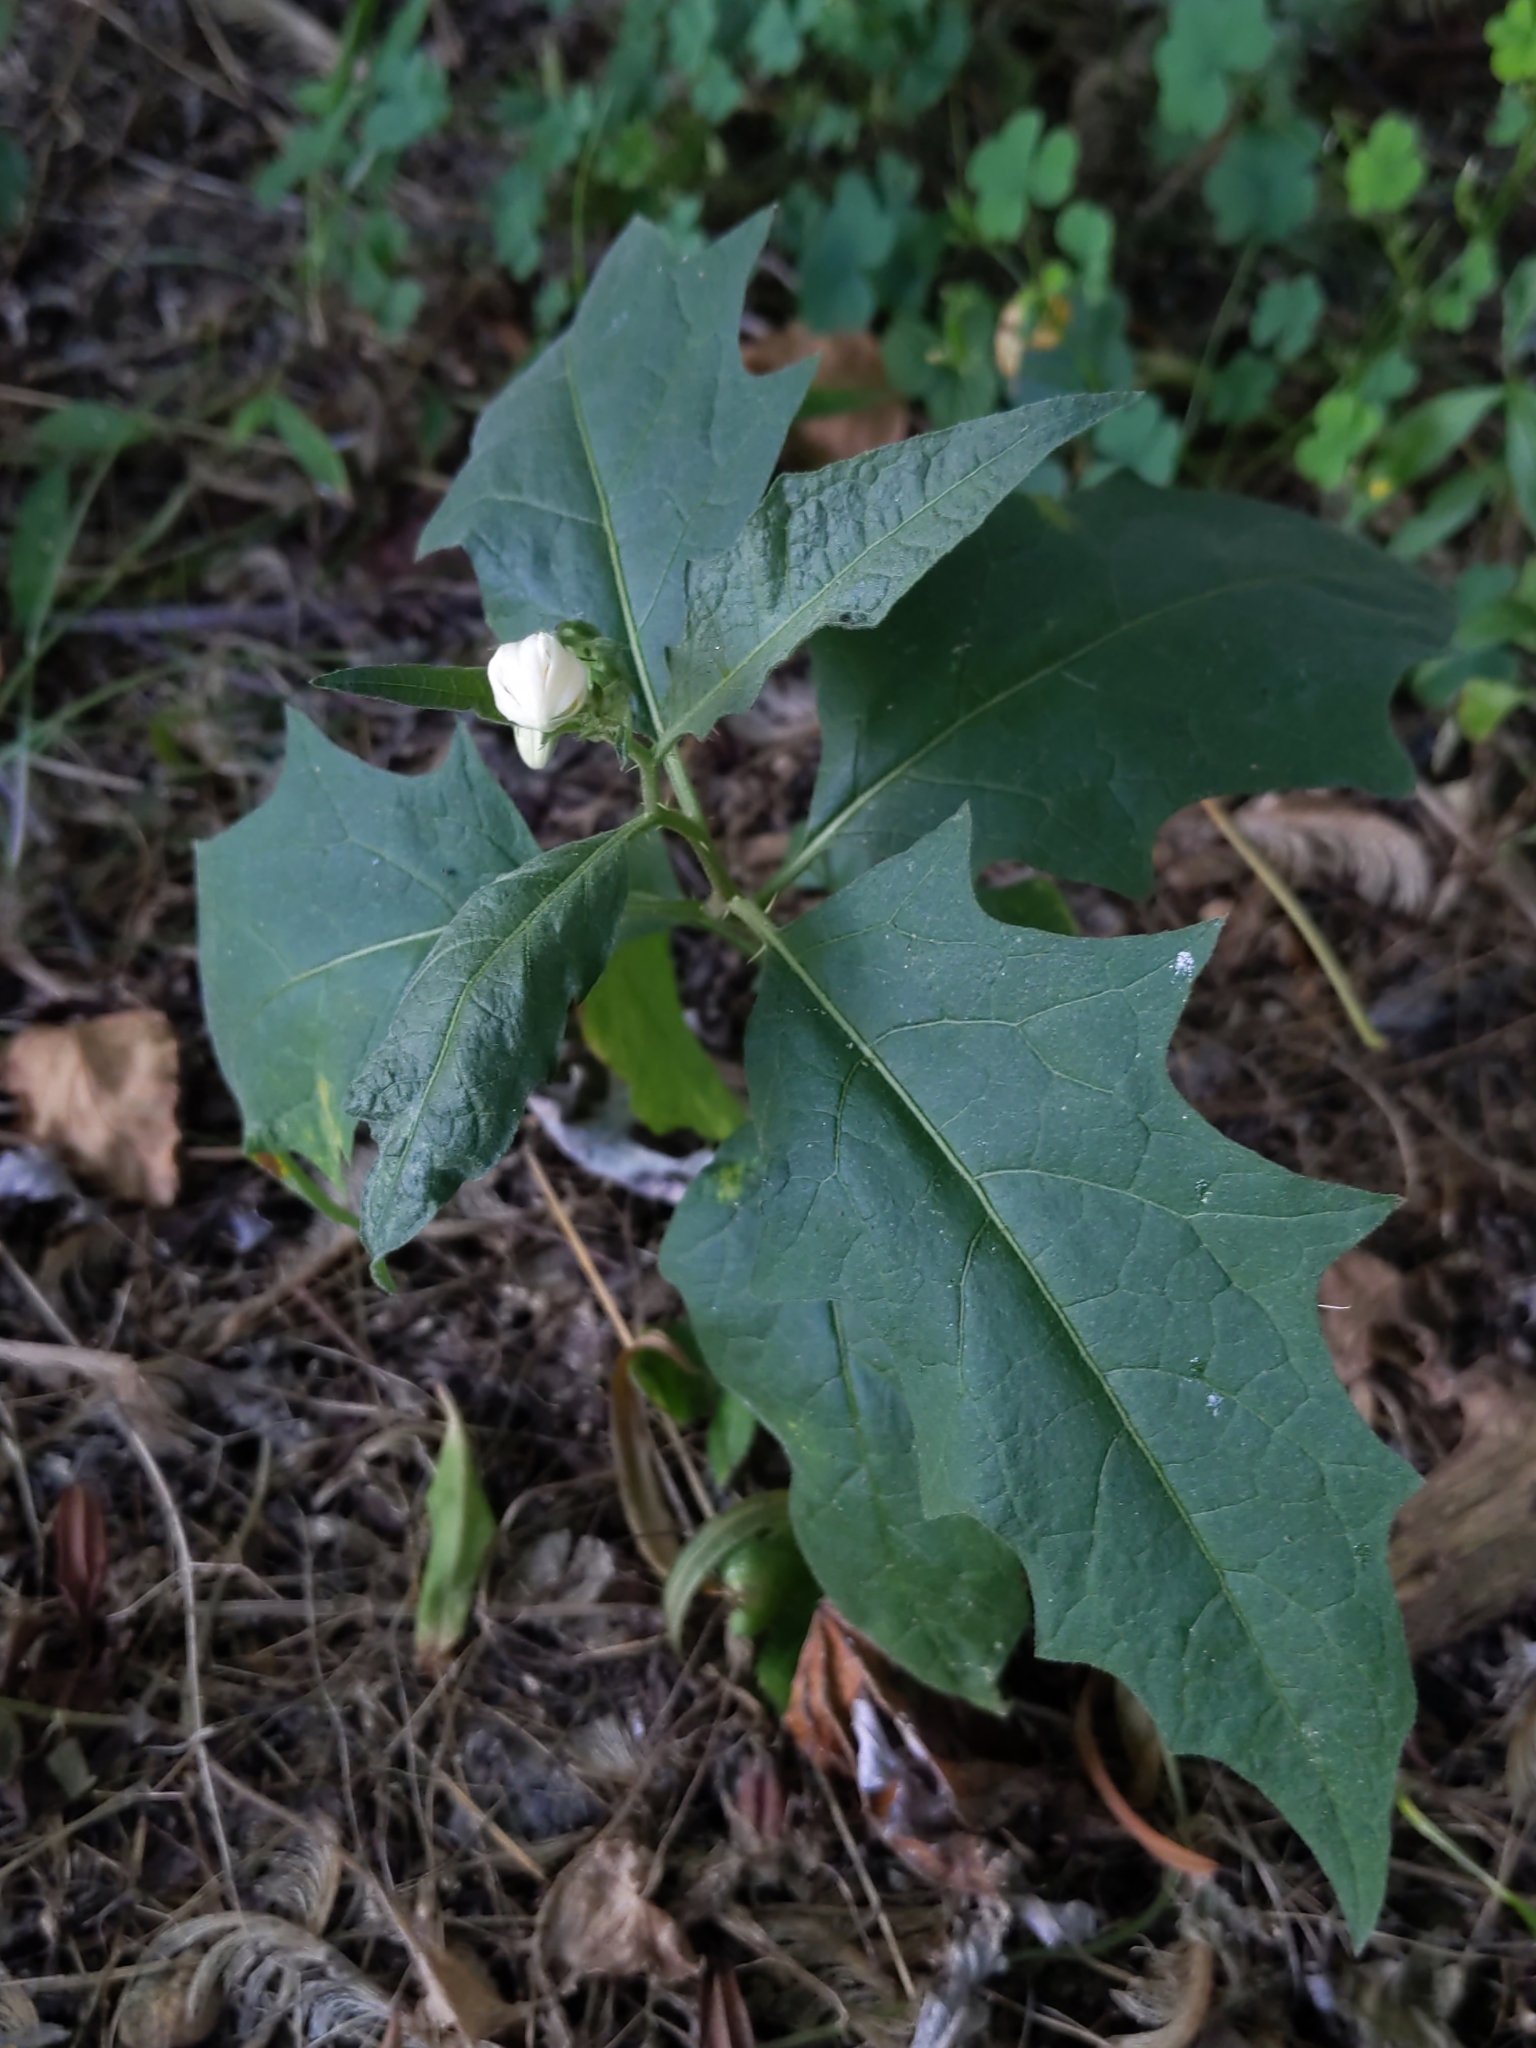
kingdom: Plantae
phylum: Tracheophyta
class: Magnoliopsida
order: Solanales
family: Solanaceae
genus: Solanum
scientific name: Solanum carolinense
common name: Horse-nettle
